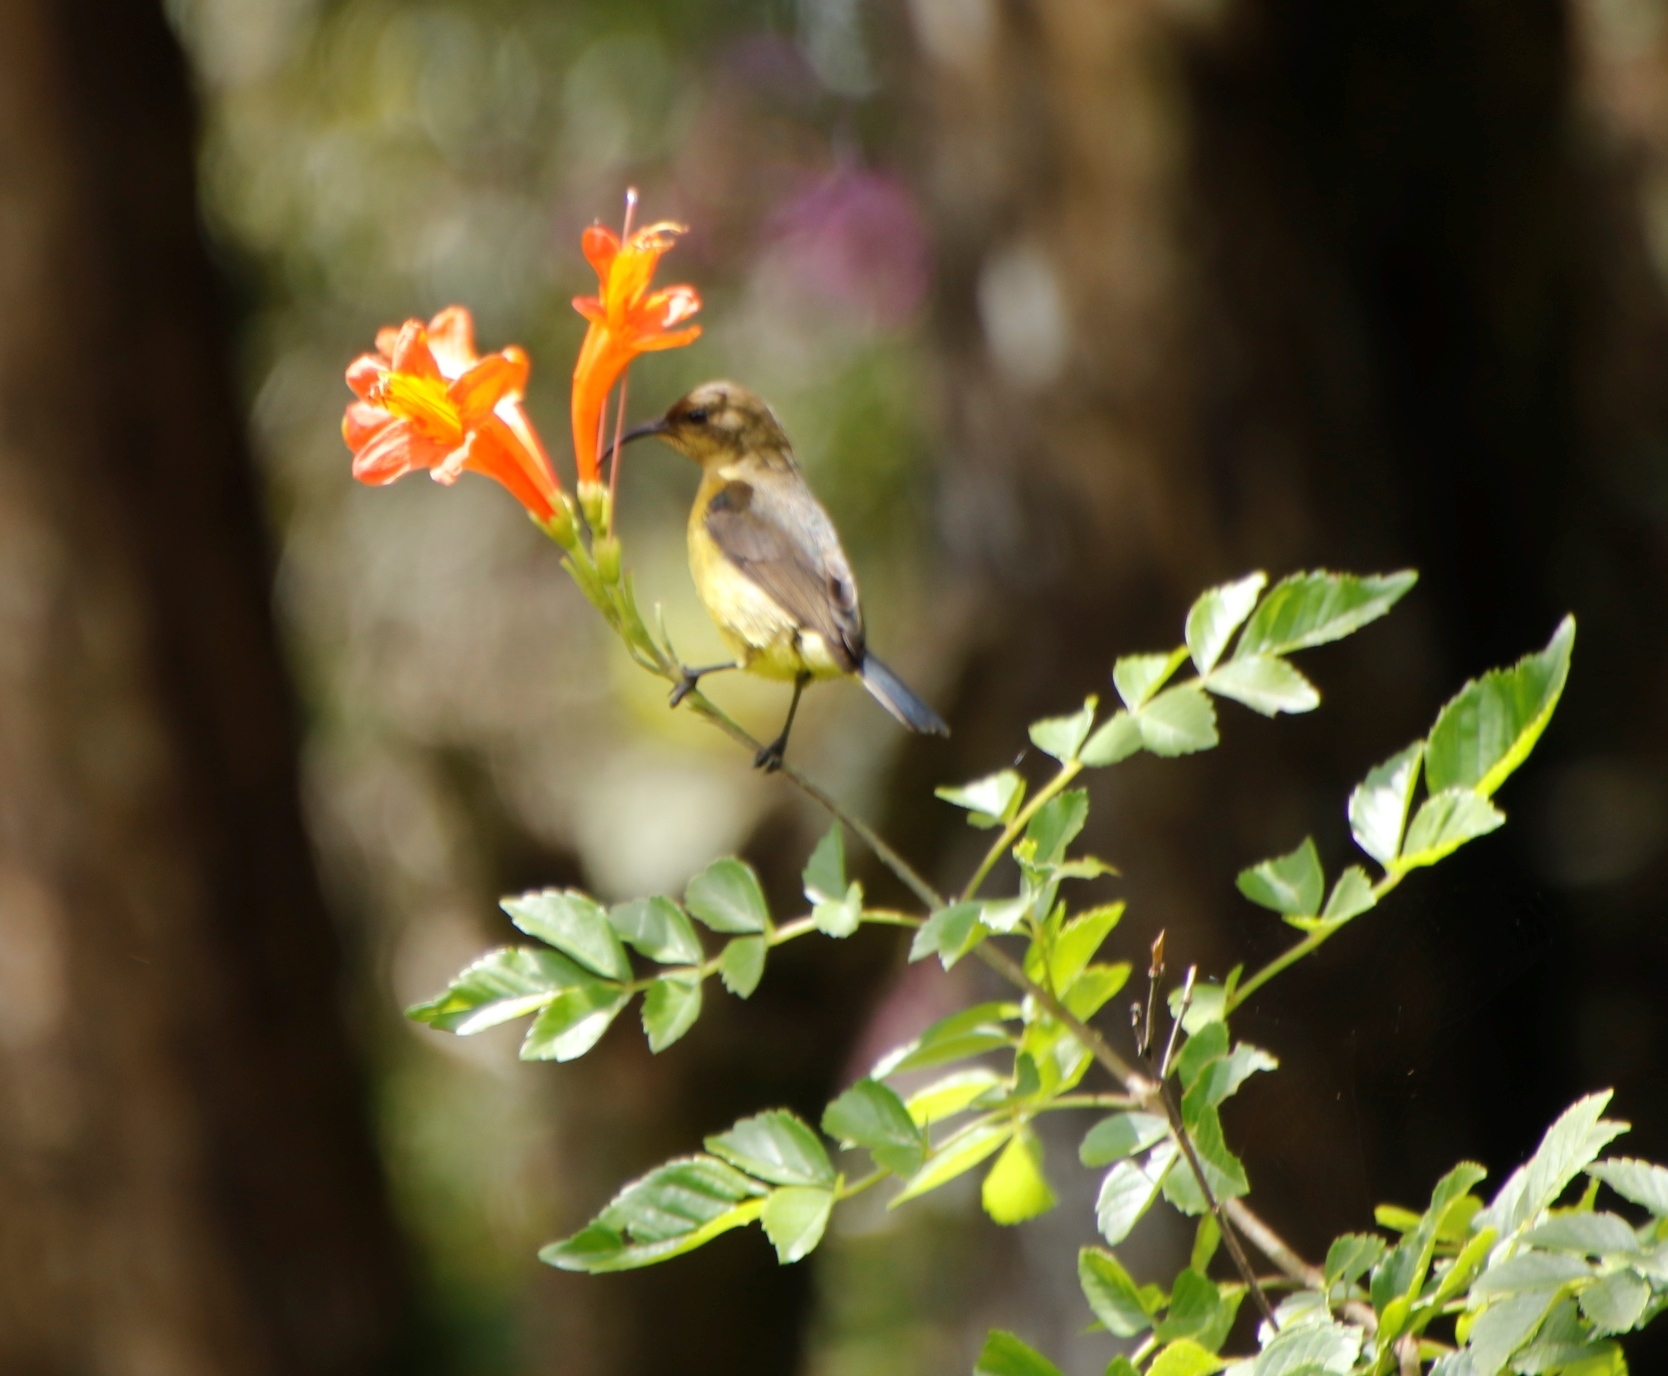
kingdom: Animalia
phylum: Chordata
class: Aves
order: Passeriformes
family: Nectariniidae
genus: Cinnyris
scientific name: Cinnyris venustus
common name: Variable sunbird
